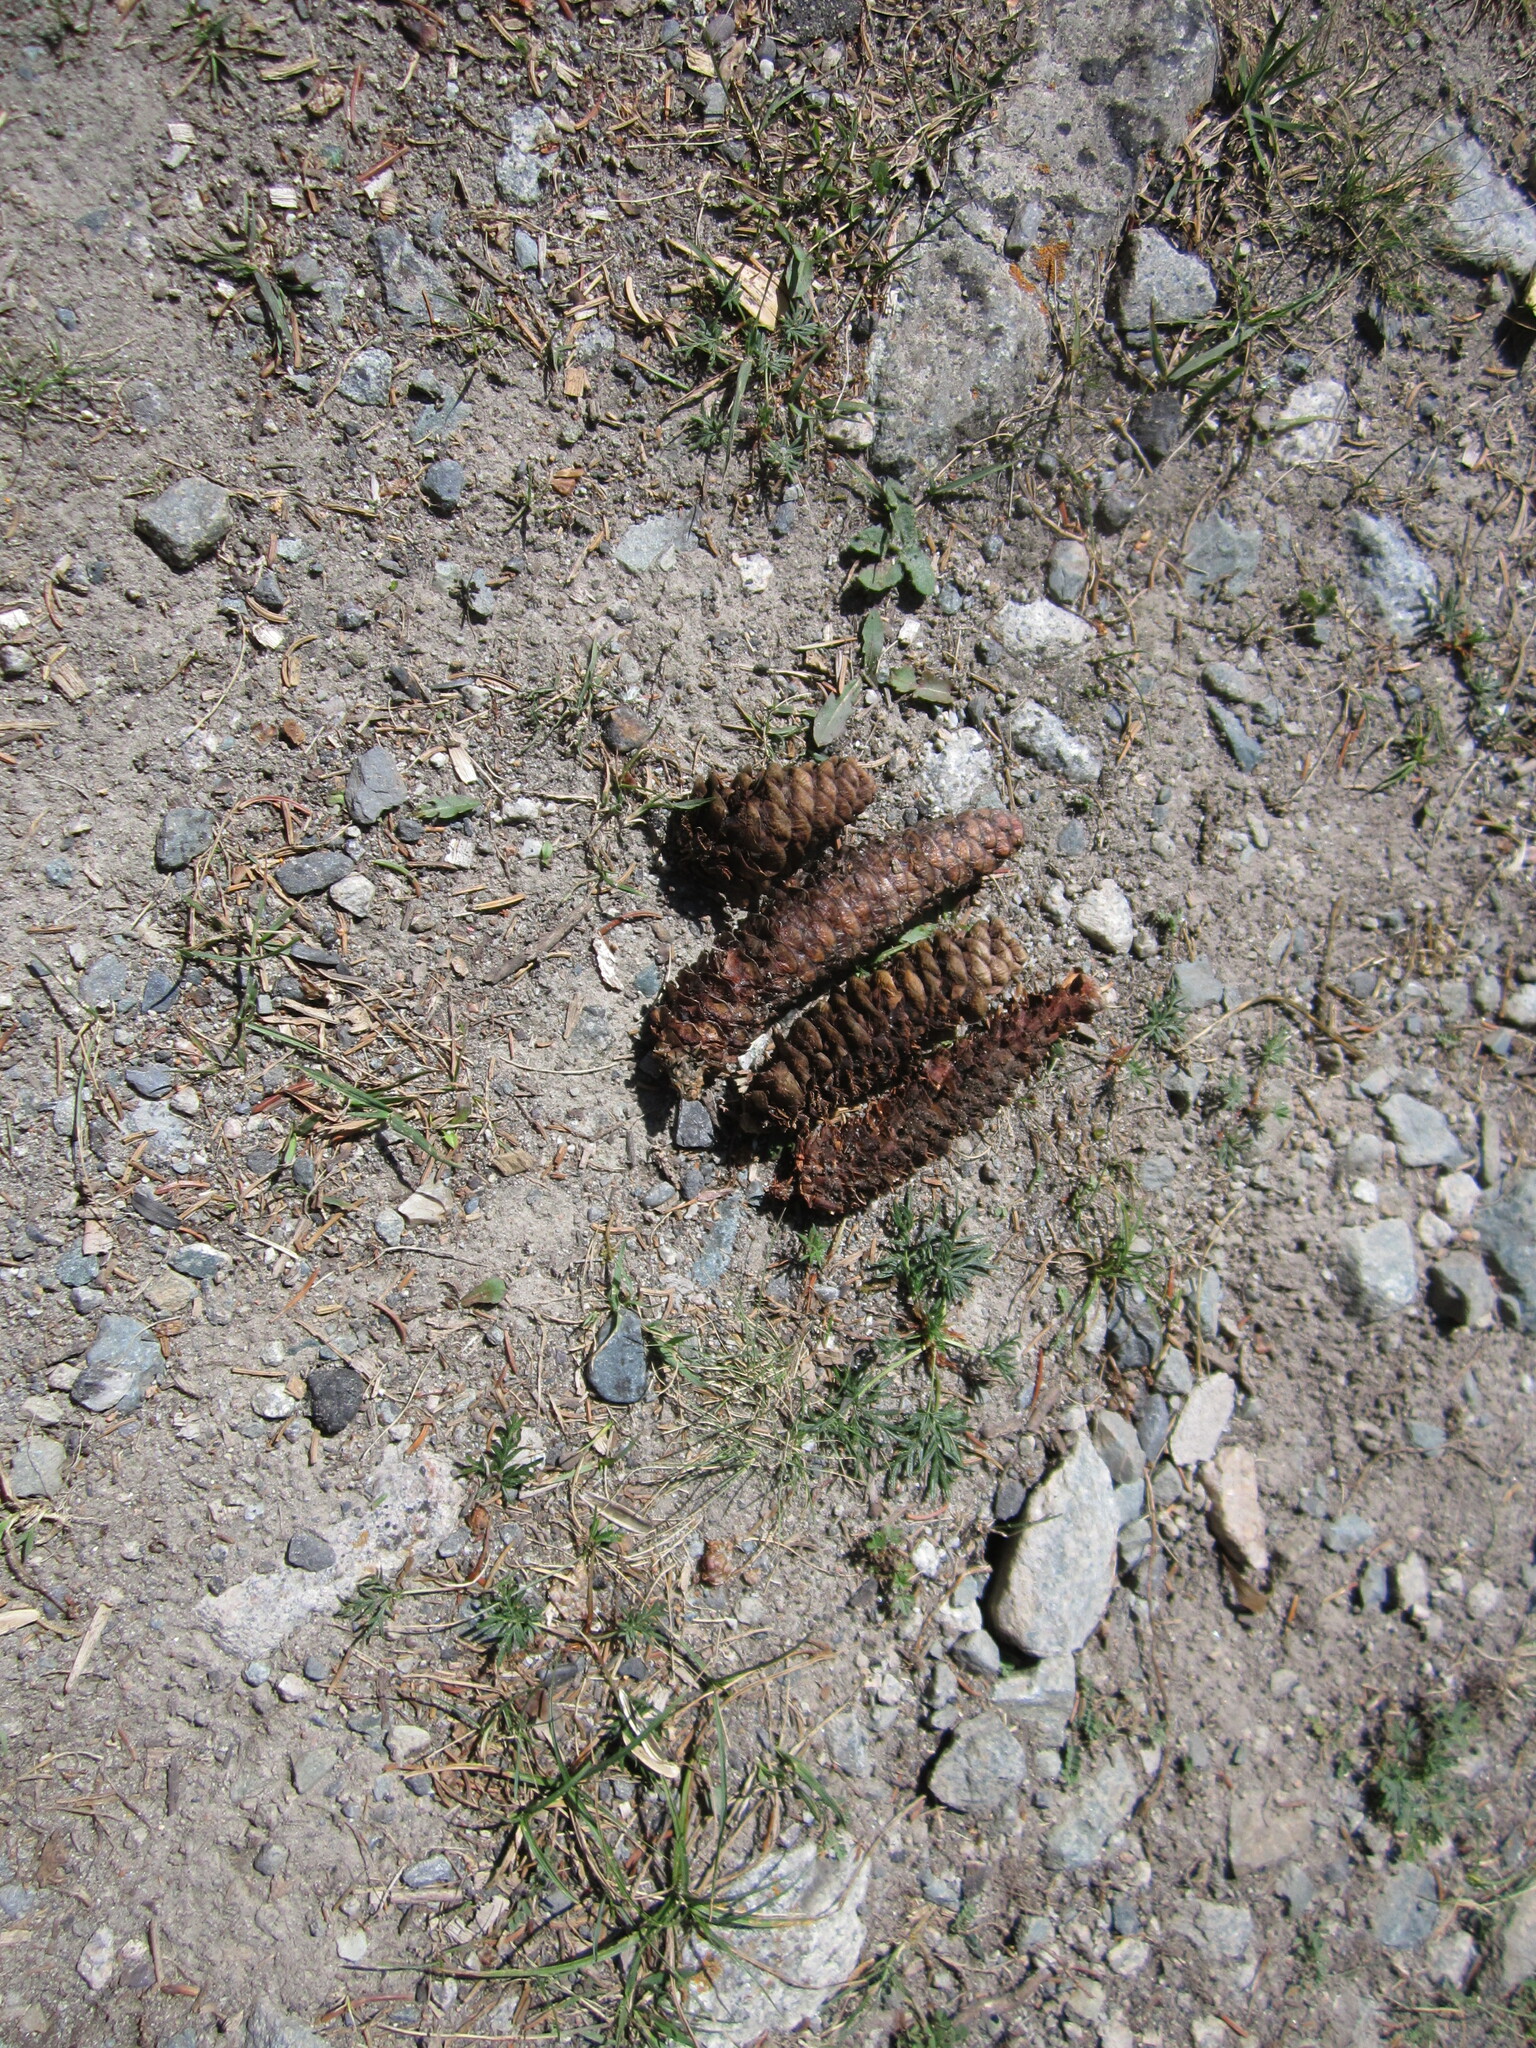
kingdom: Plantae
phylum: Tracheophyta
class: Pinopsida
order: Pinales
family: Pinaceae
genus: Picea
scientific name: Picea schrenkiana
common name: Asian spruce
